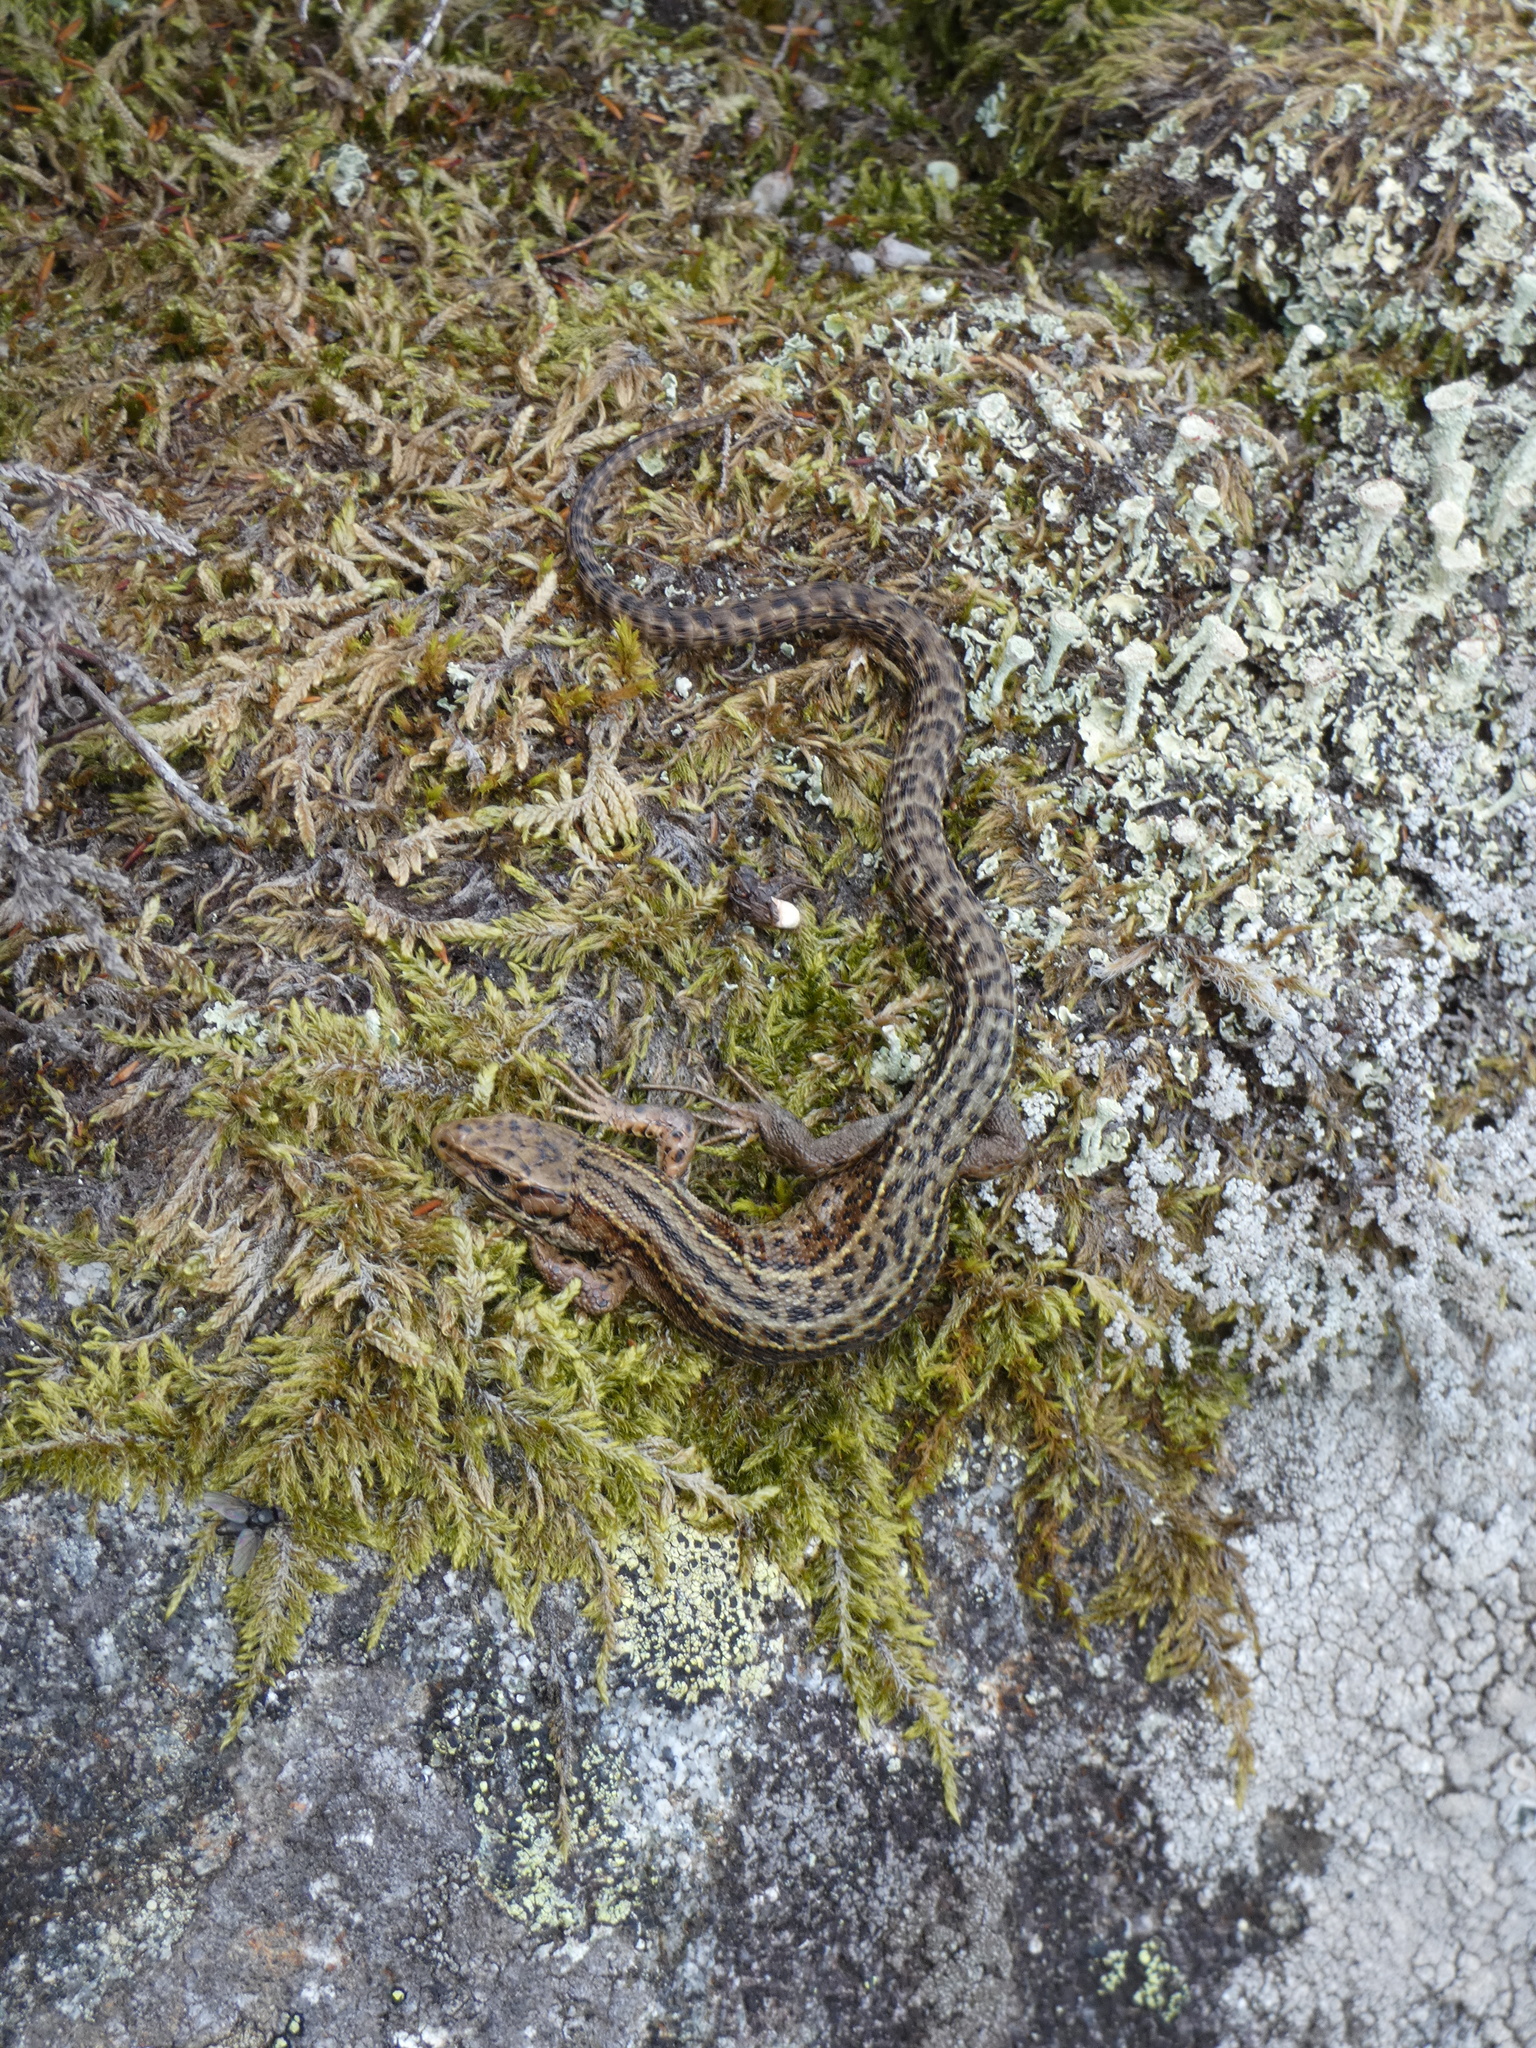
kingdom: Animalia
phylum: Chordata
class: Squamata
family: Lacertidae
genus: Zootoca
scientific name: Zootoca vivipara
